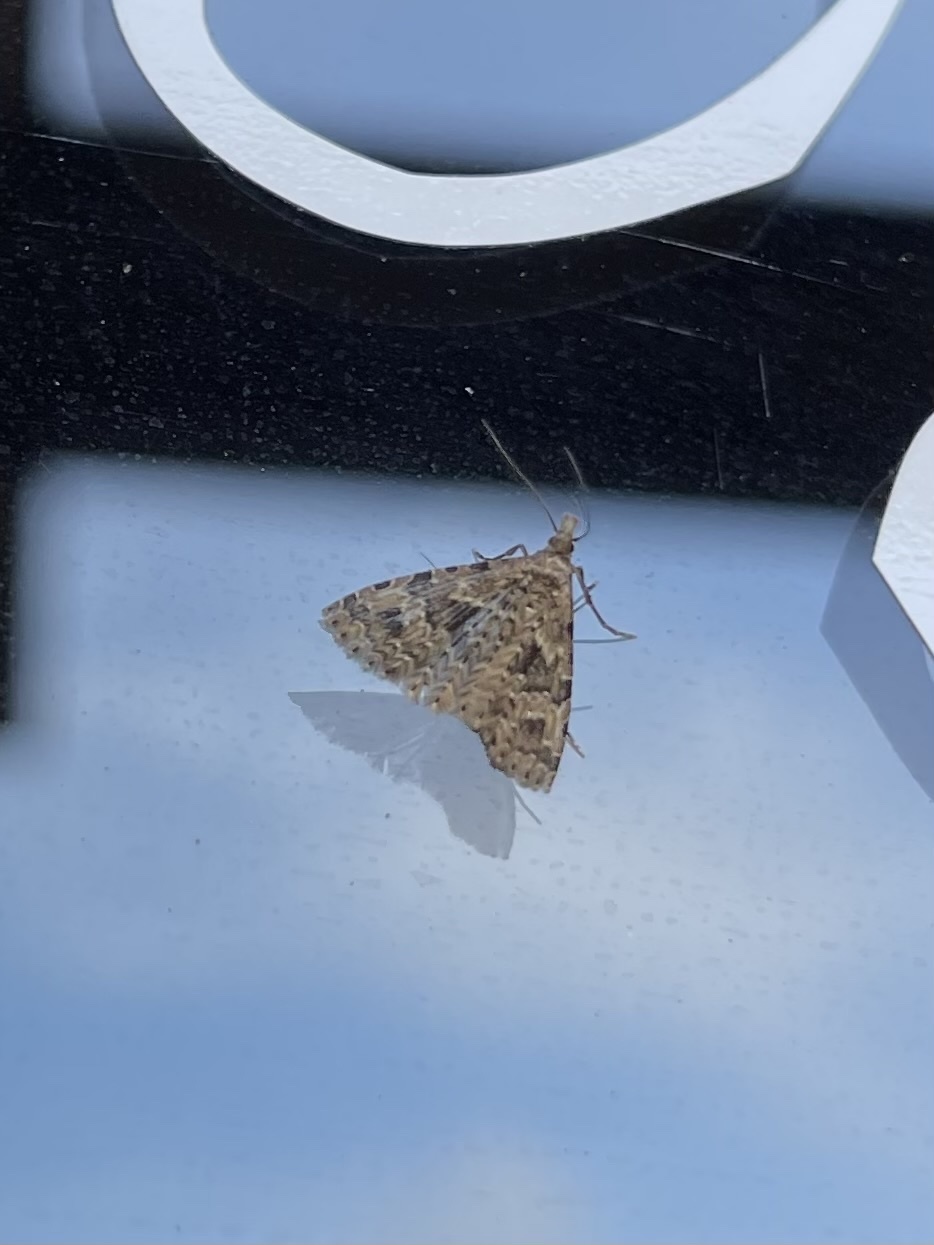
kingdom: Animalia
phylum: Arthropoda
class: Insecta
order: Lepidoptera
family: Alucitidae
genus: Alucita
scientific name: Alucita montana
